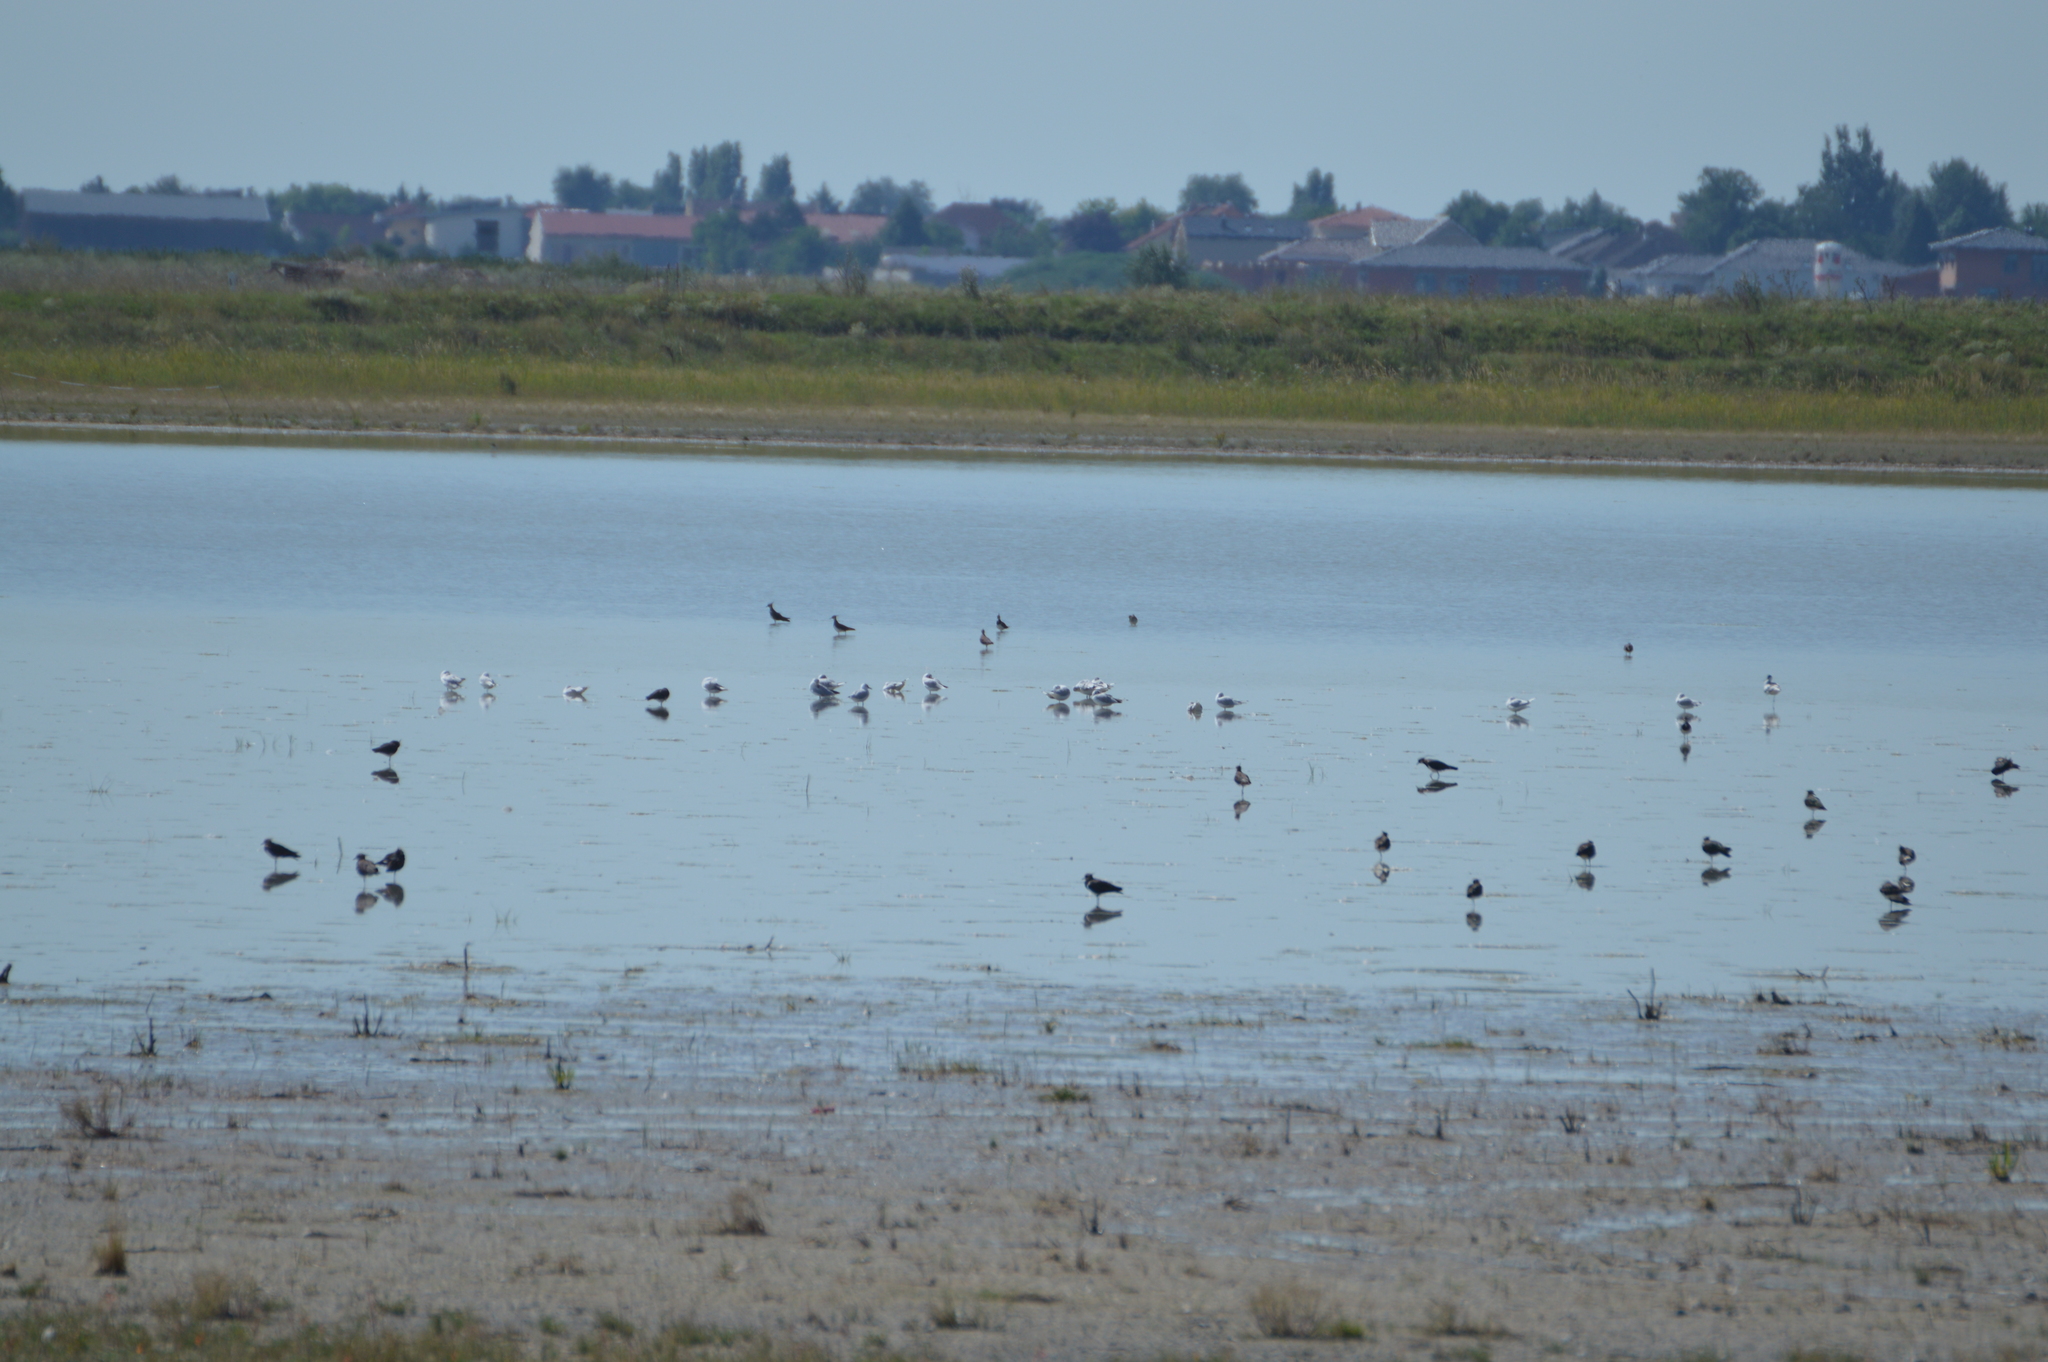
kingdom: Animalia
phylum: Chordata
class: Aves
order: Charadriiformes
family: Laridae
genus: Chroicocephalus
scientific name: Chroicocephalus ridibundus
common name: Black-headed gull
